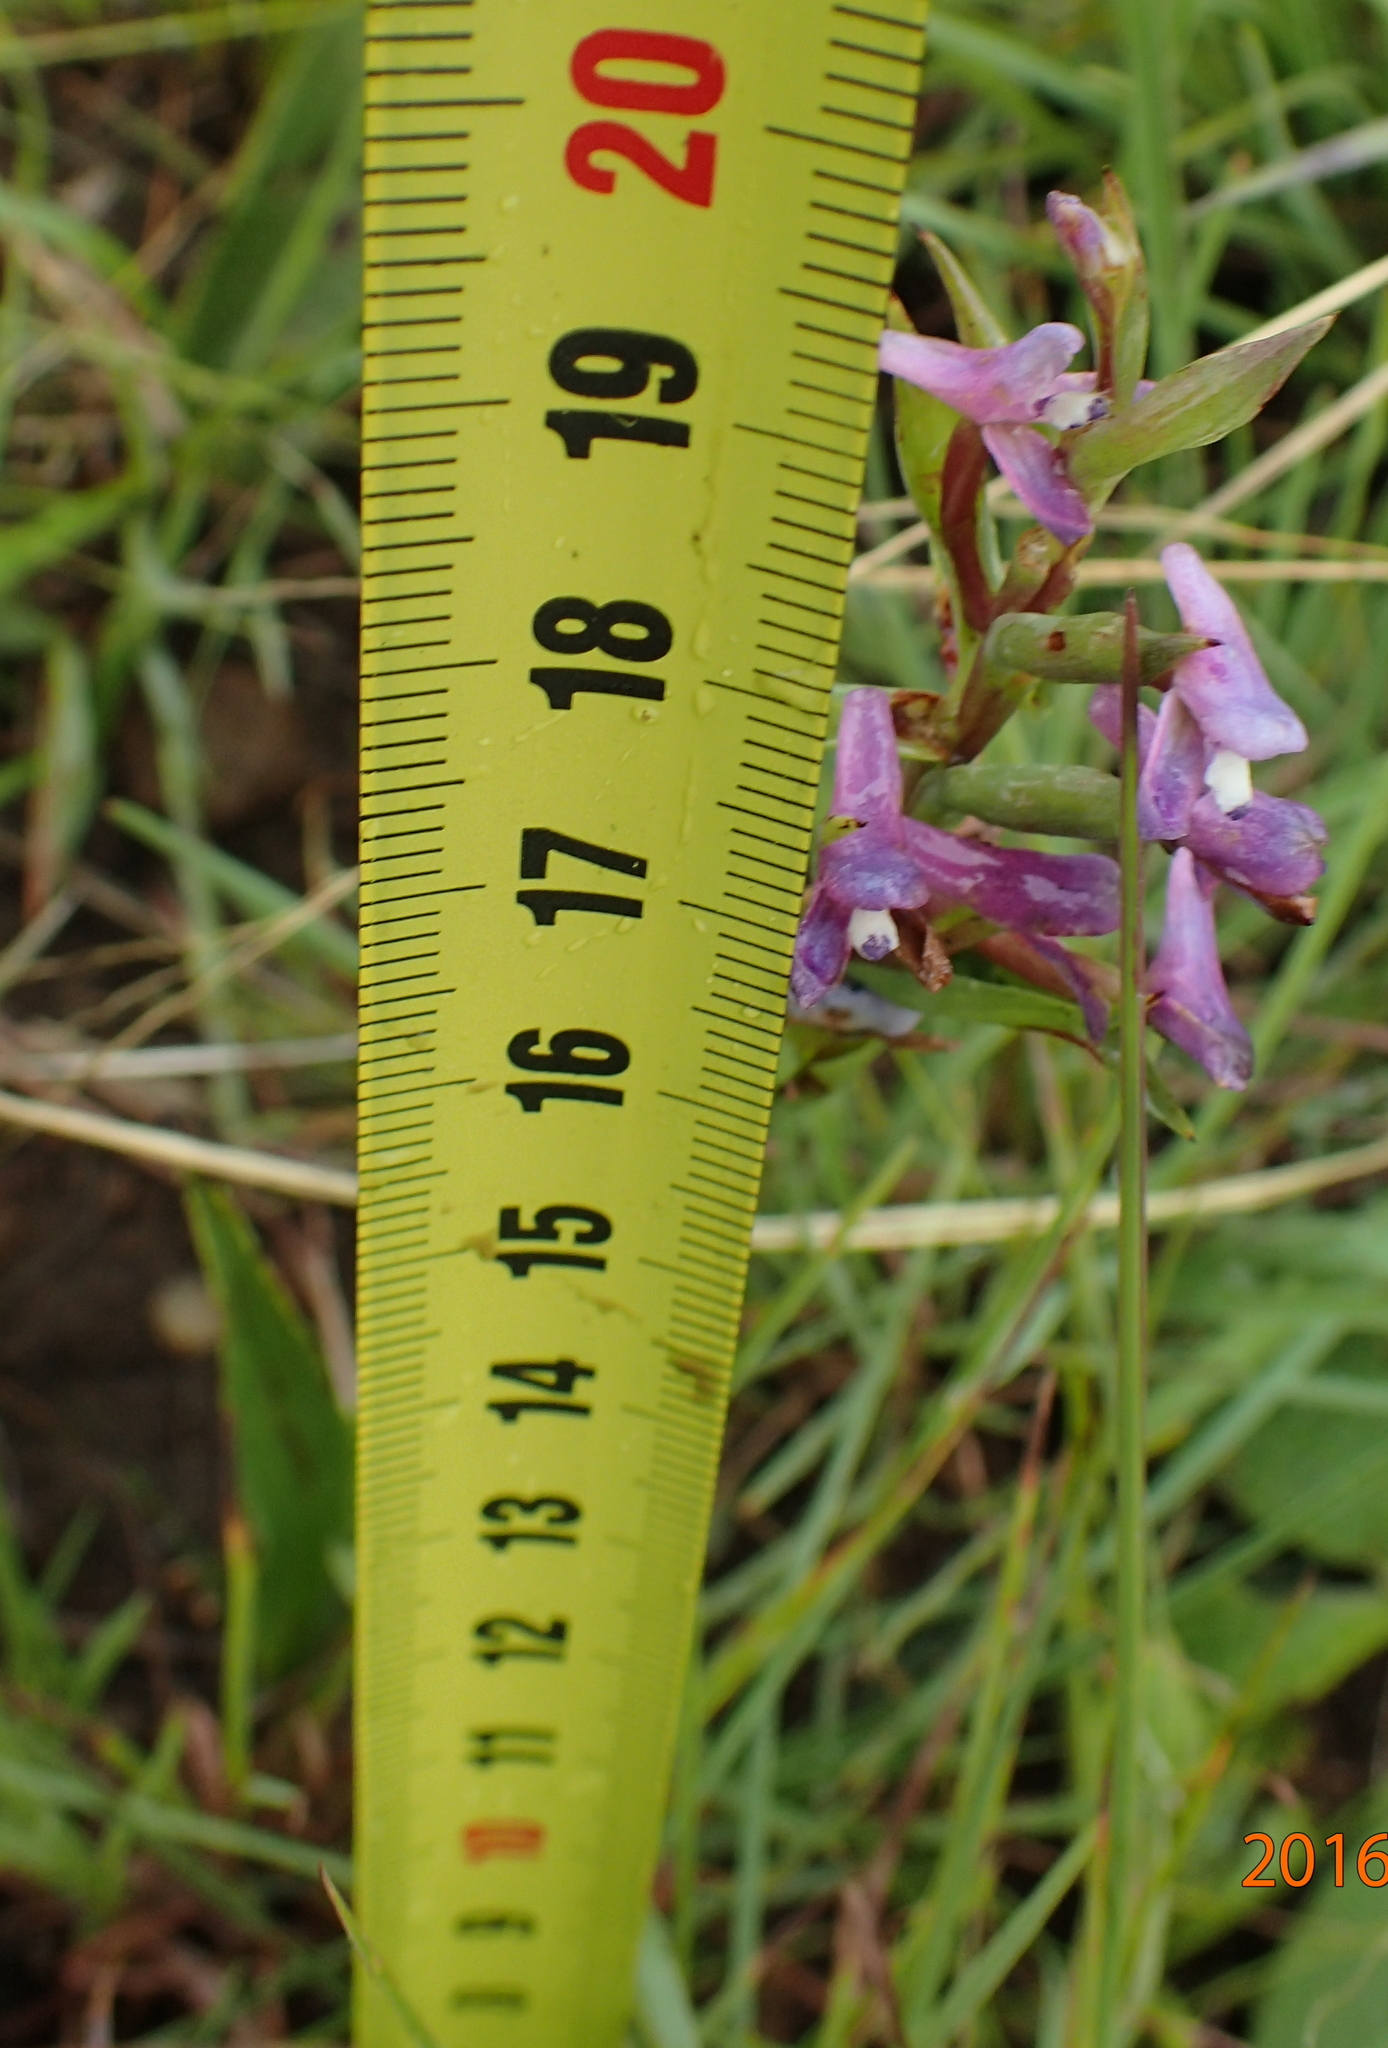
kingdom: Plantae
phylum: Tracheophyta
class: Liliopsida
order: Asparagales
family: Orchidaceae
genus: Disa
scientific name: Disa stachyoides
